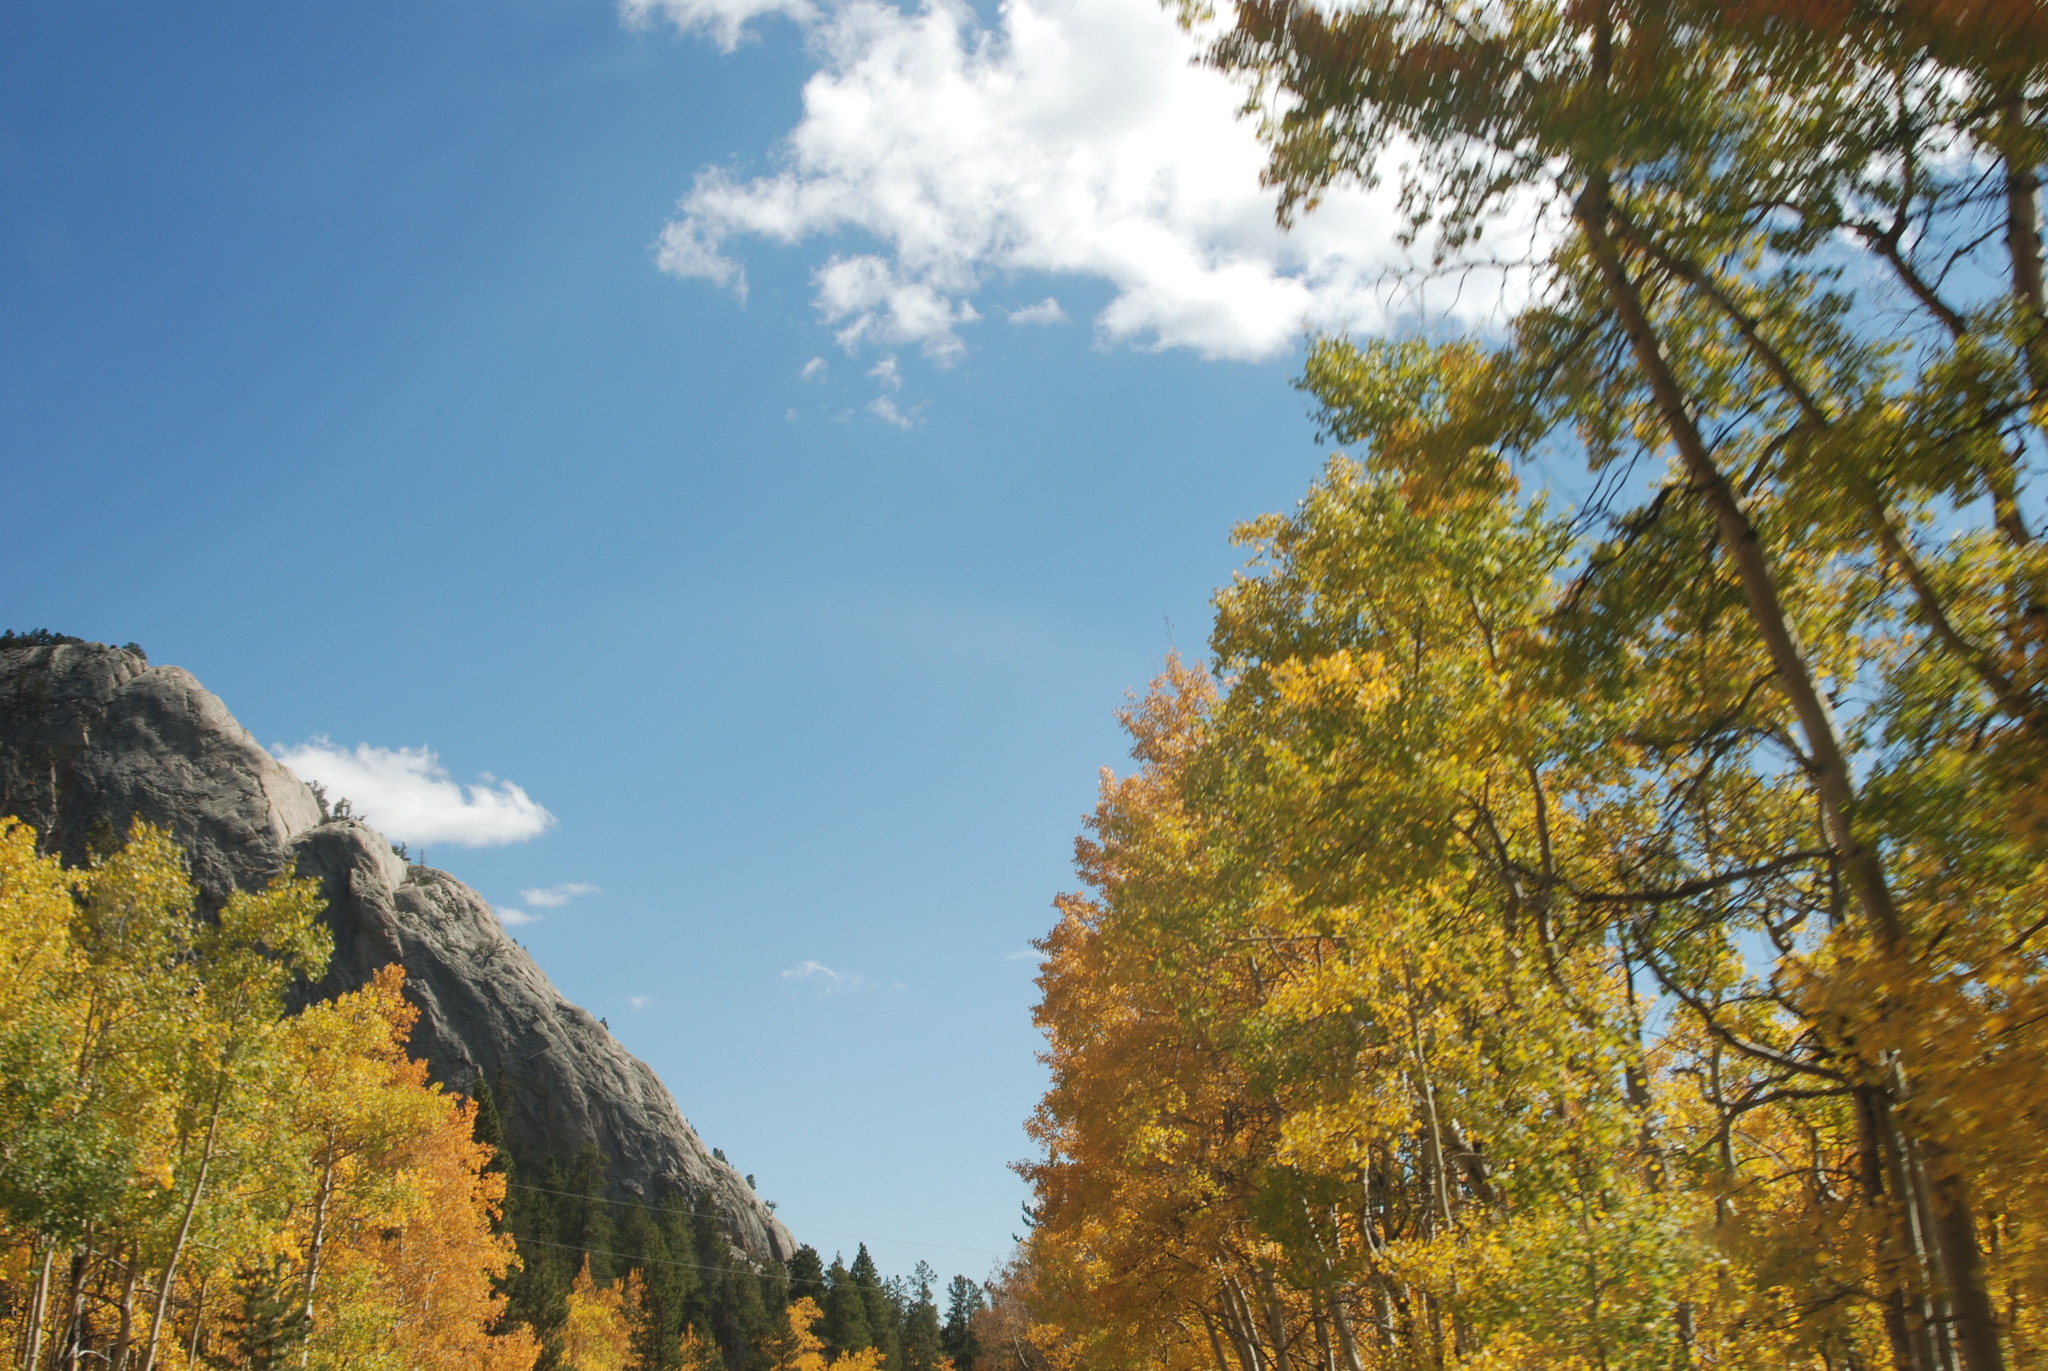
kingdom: Plantae
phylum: Tracheophyta
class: Magnoliopsida
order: Malpighiales
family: Salicaceae
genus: Populus
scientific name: Populus tremuloides
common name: Quaking aspen
